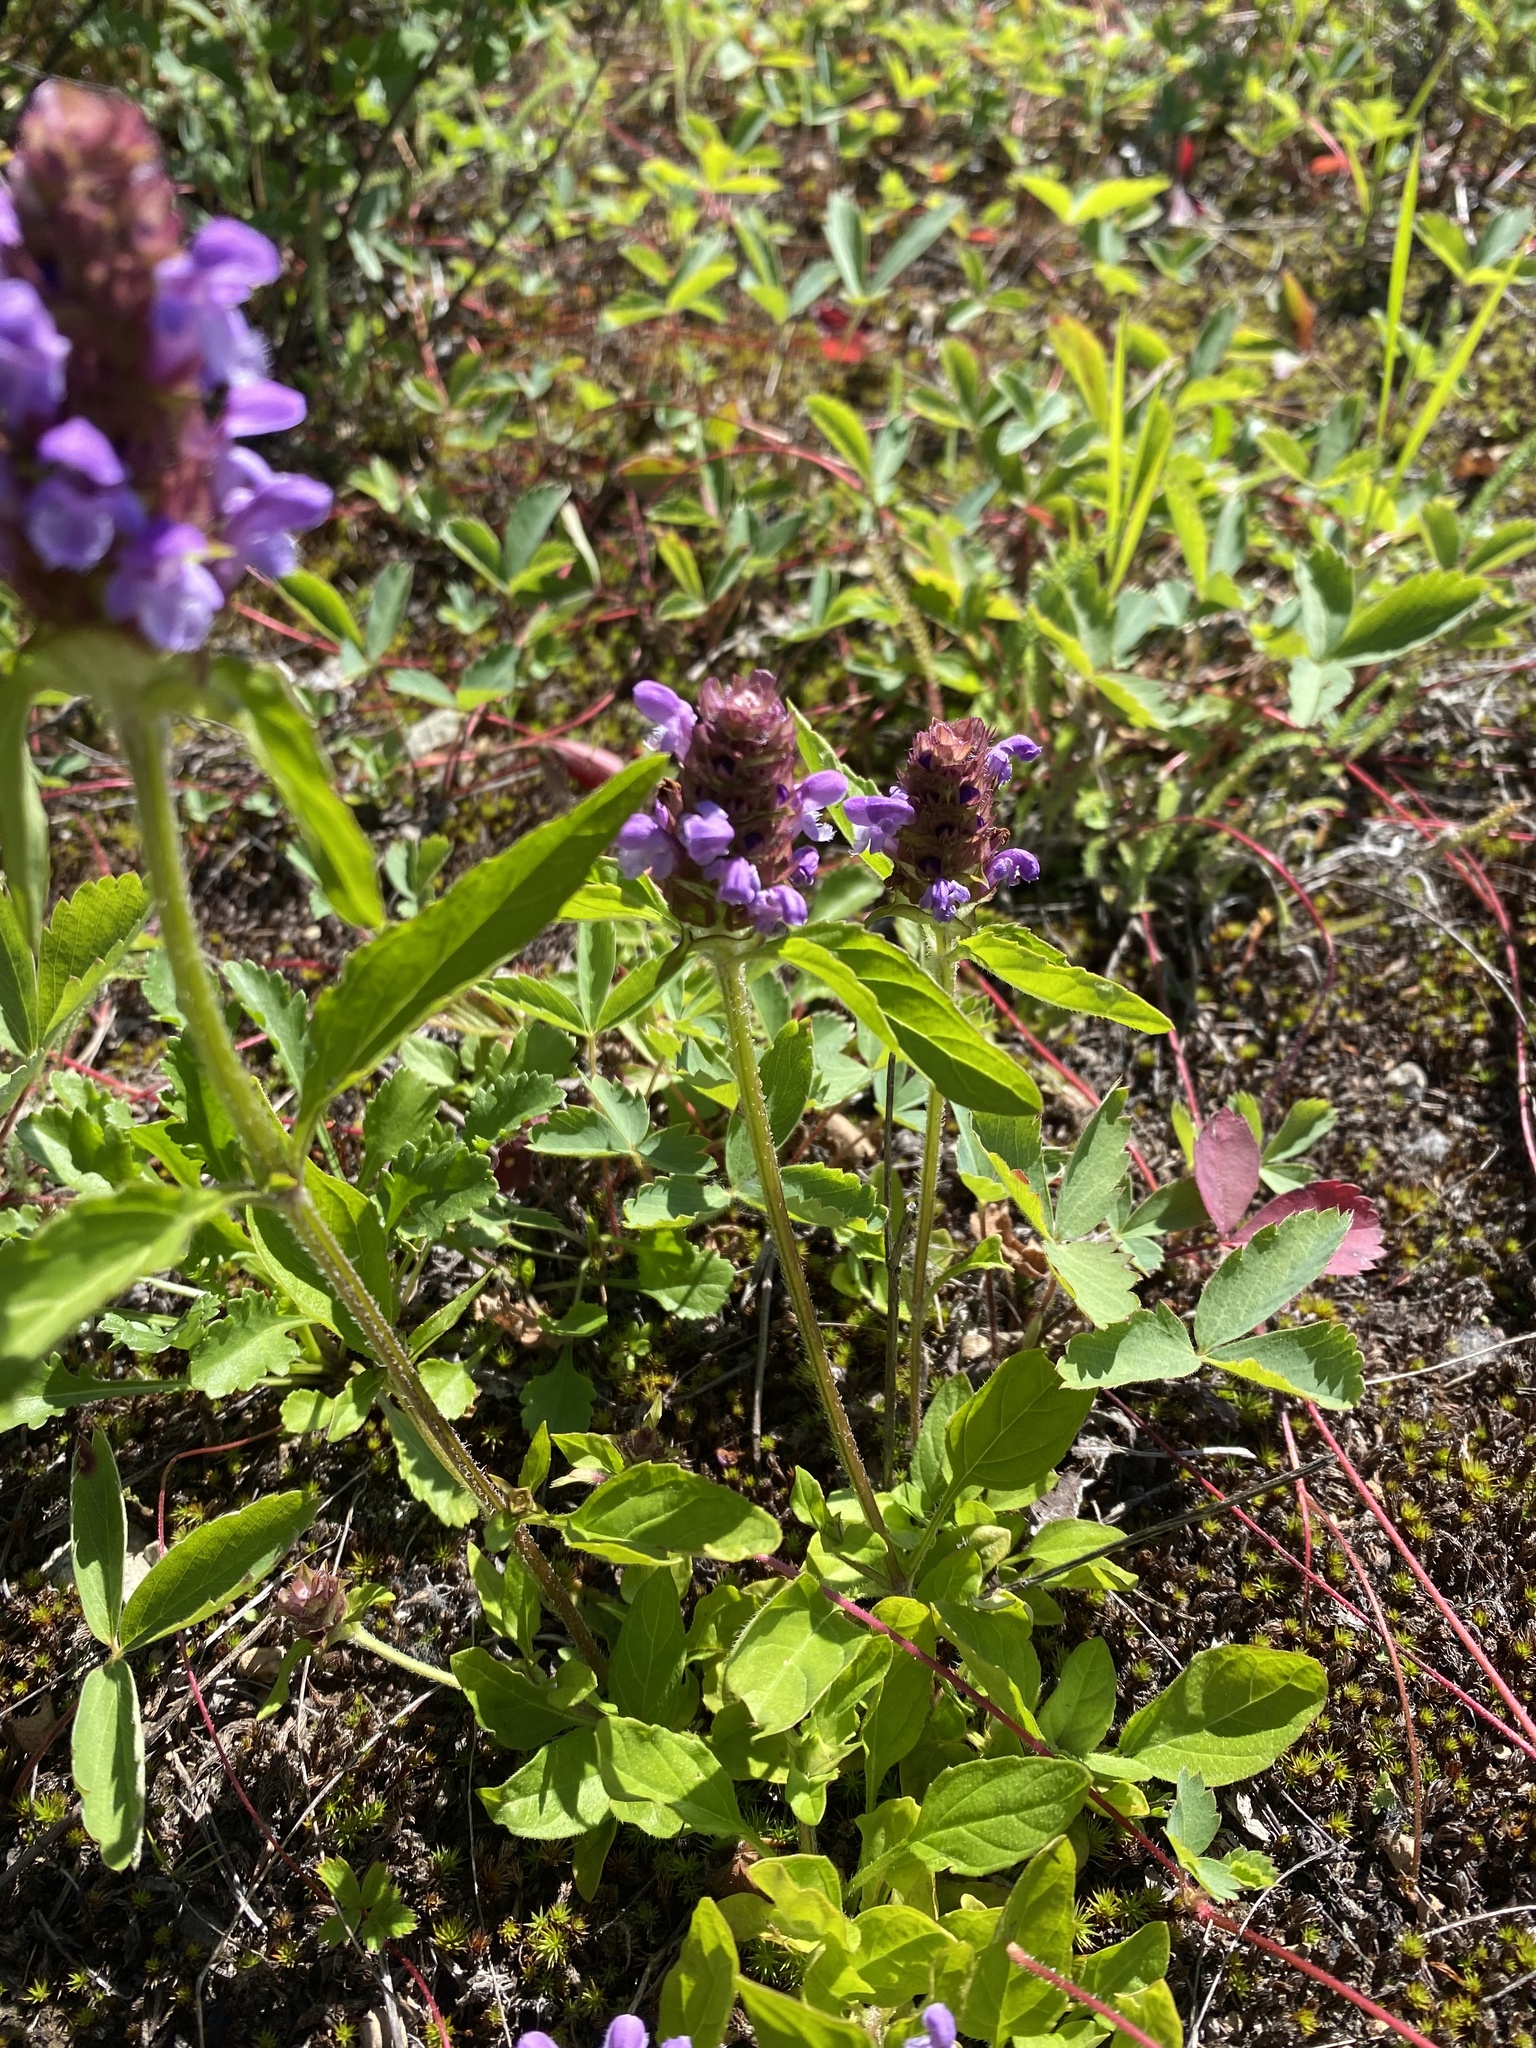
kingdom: Plantae
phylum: Tracheophyta
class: Magnoliopsida
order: Lamiales
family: Lamiaceae
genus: Prunella
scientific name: Prunella vulgaris
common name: Heal-all
